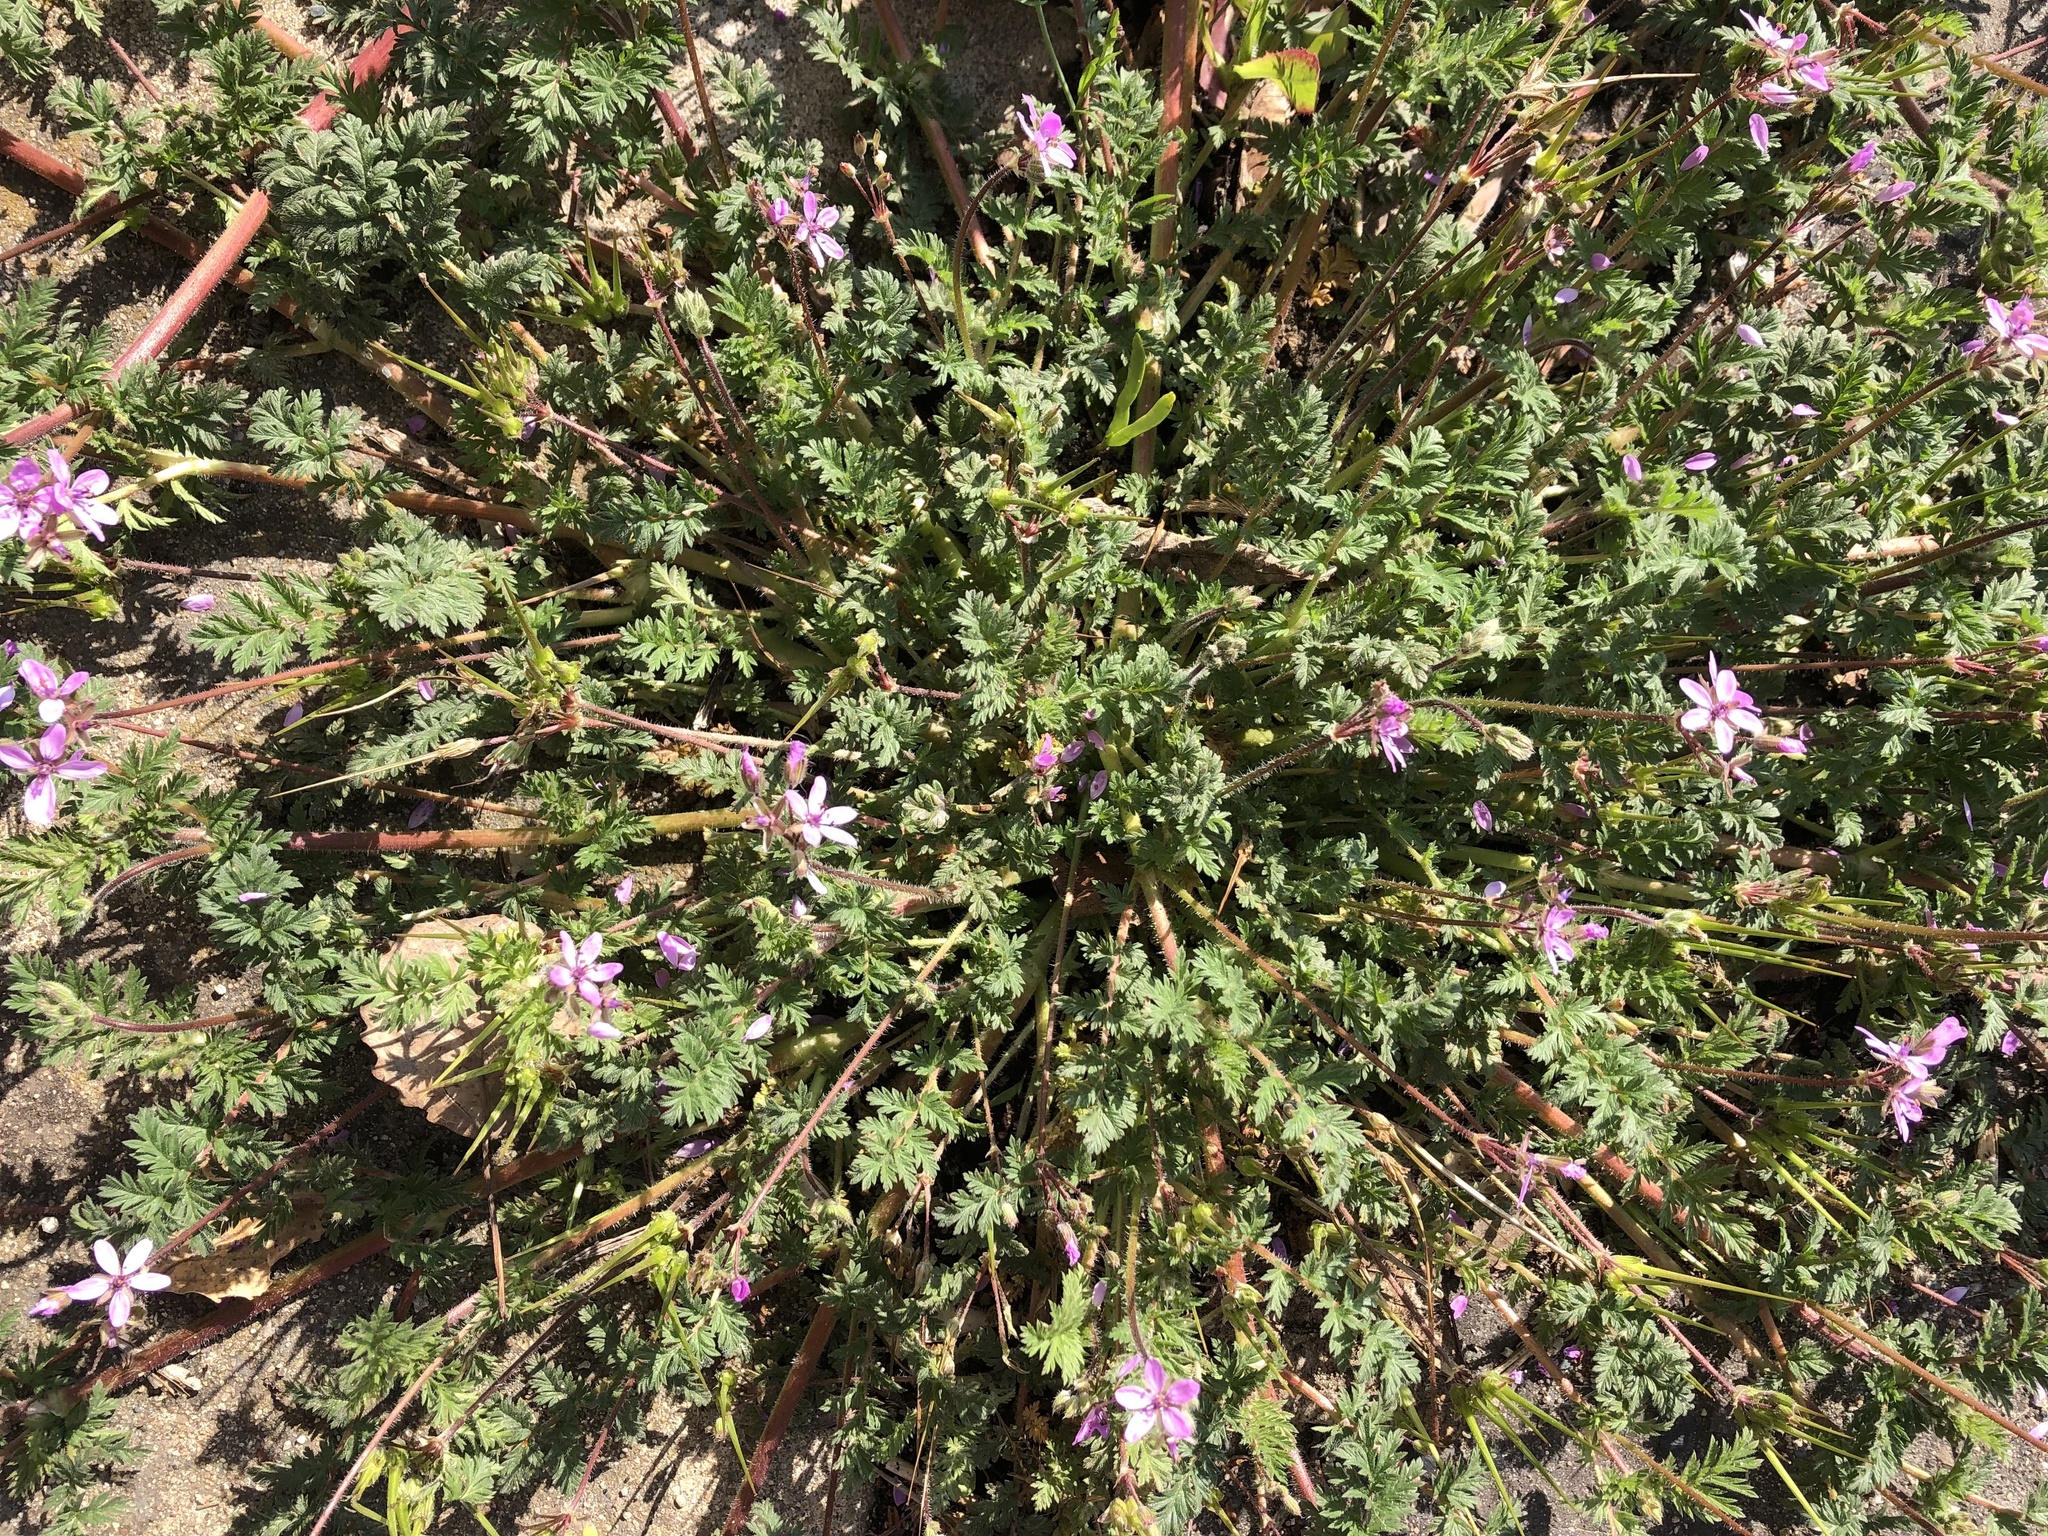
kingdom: Plantae
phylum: Tracheophyta
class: Magnoliopsida
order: Geraniales
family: Geraniaceae
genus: Erodium
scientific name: Erodium cicutarium
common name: Common stork's-bill
